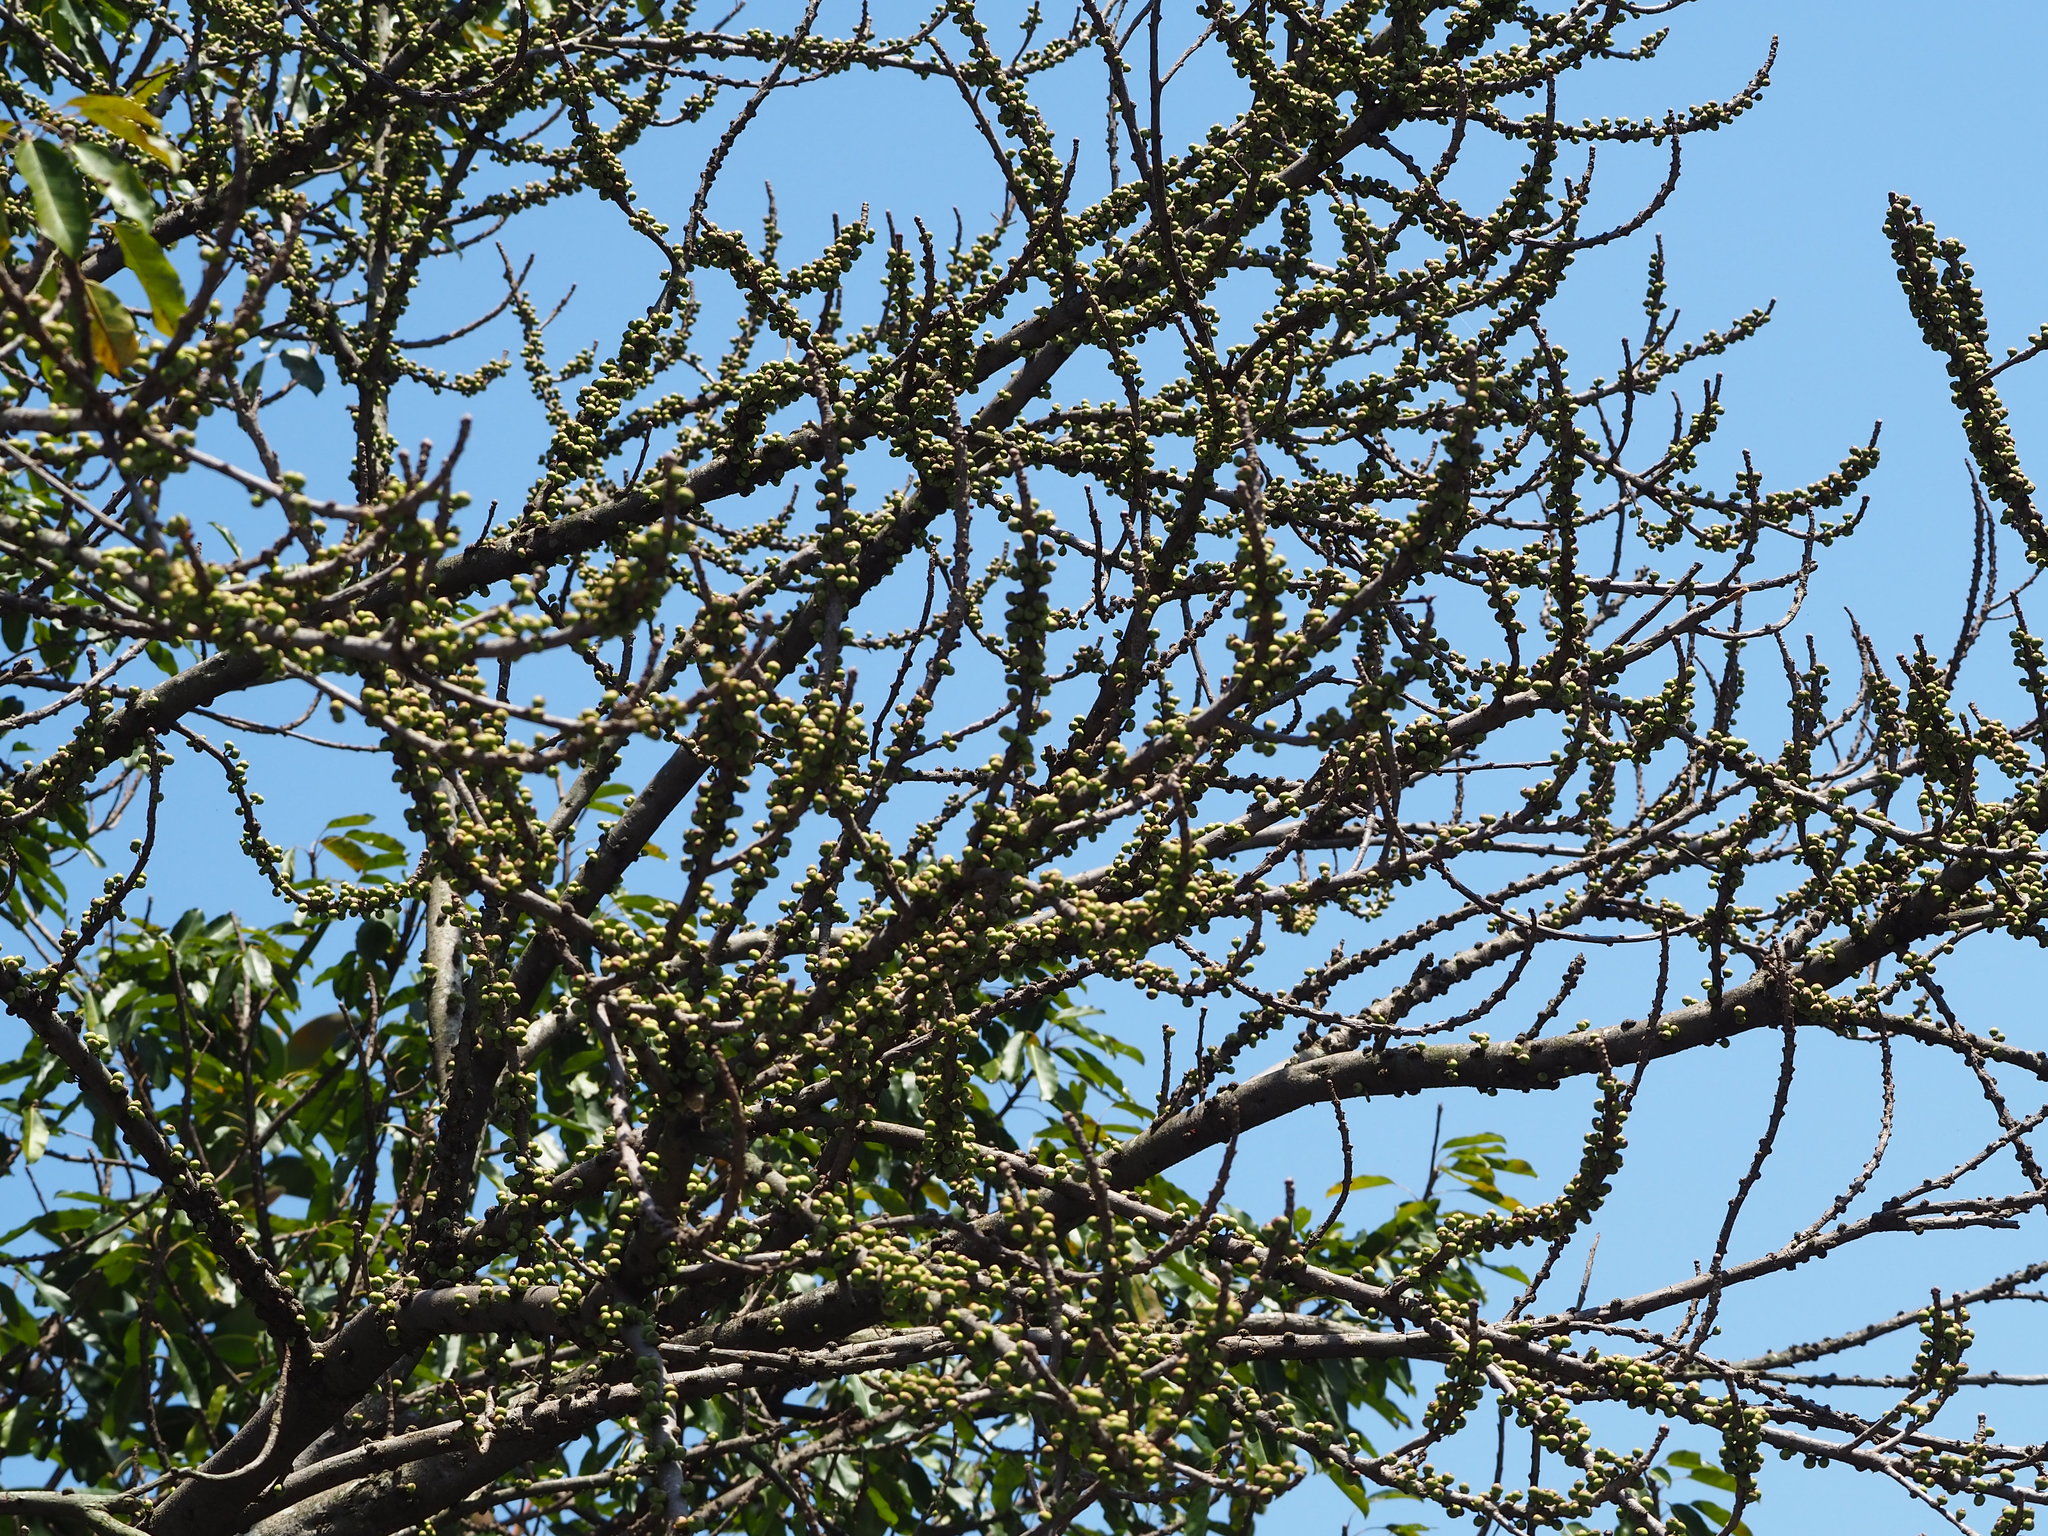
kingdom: Plantae
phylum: Tracheophyta
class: Magnoliopsida
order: Rosales
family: Moraceae
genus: Ficus
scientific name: Ficus subpisocarpa
